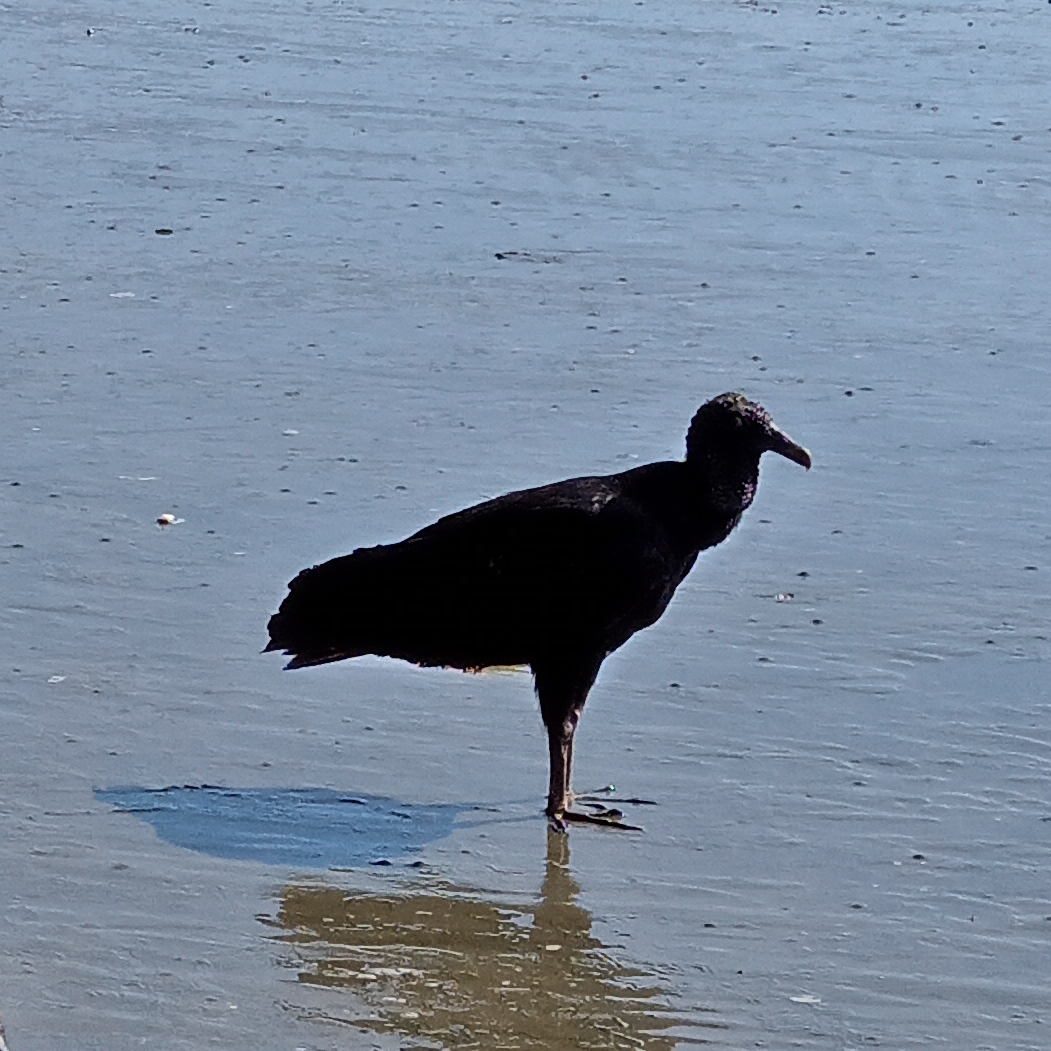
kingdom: Animalia
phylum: Chordata
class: Aves
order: Accipitriformes
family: Cathartidae
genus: Coragyps
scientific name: Coragyps atratus
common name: Black vulture
